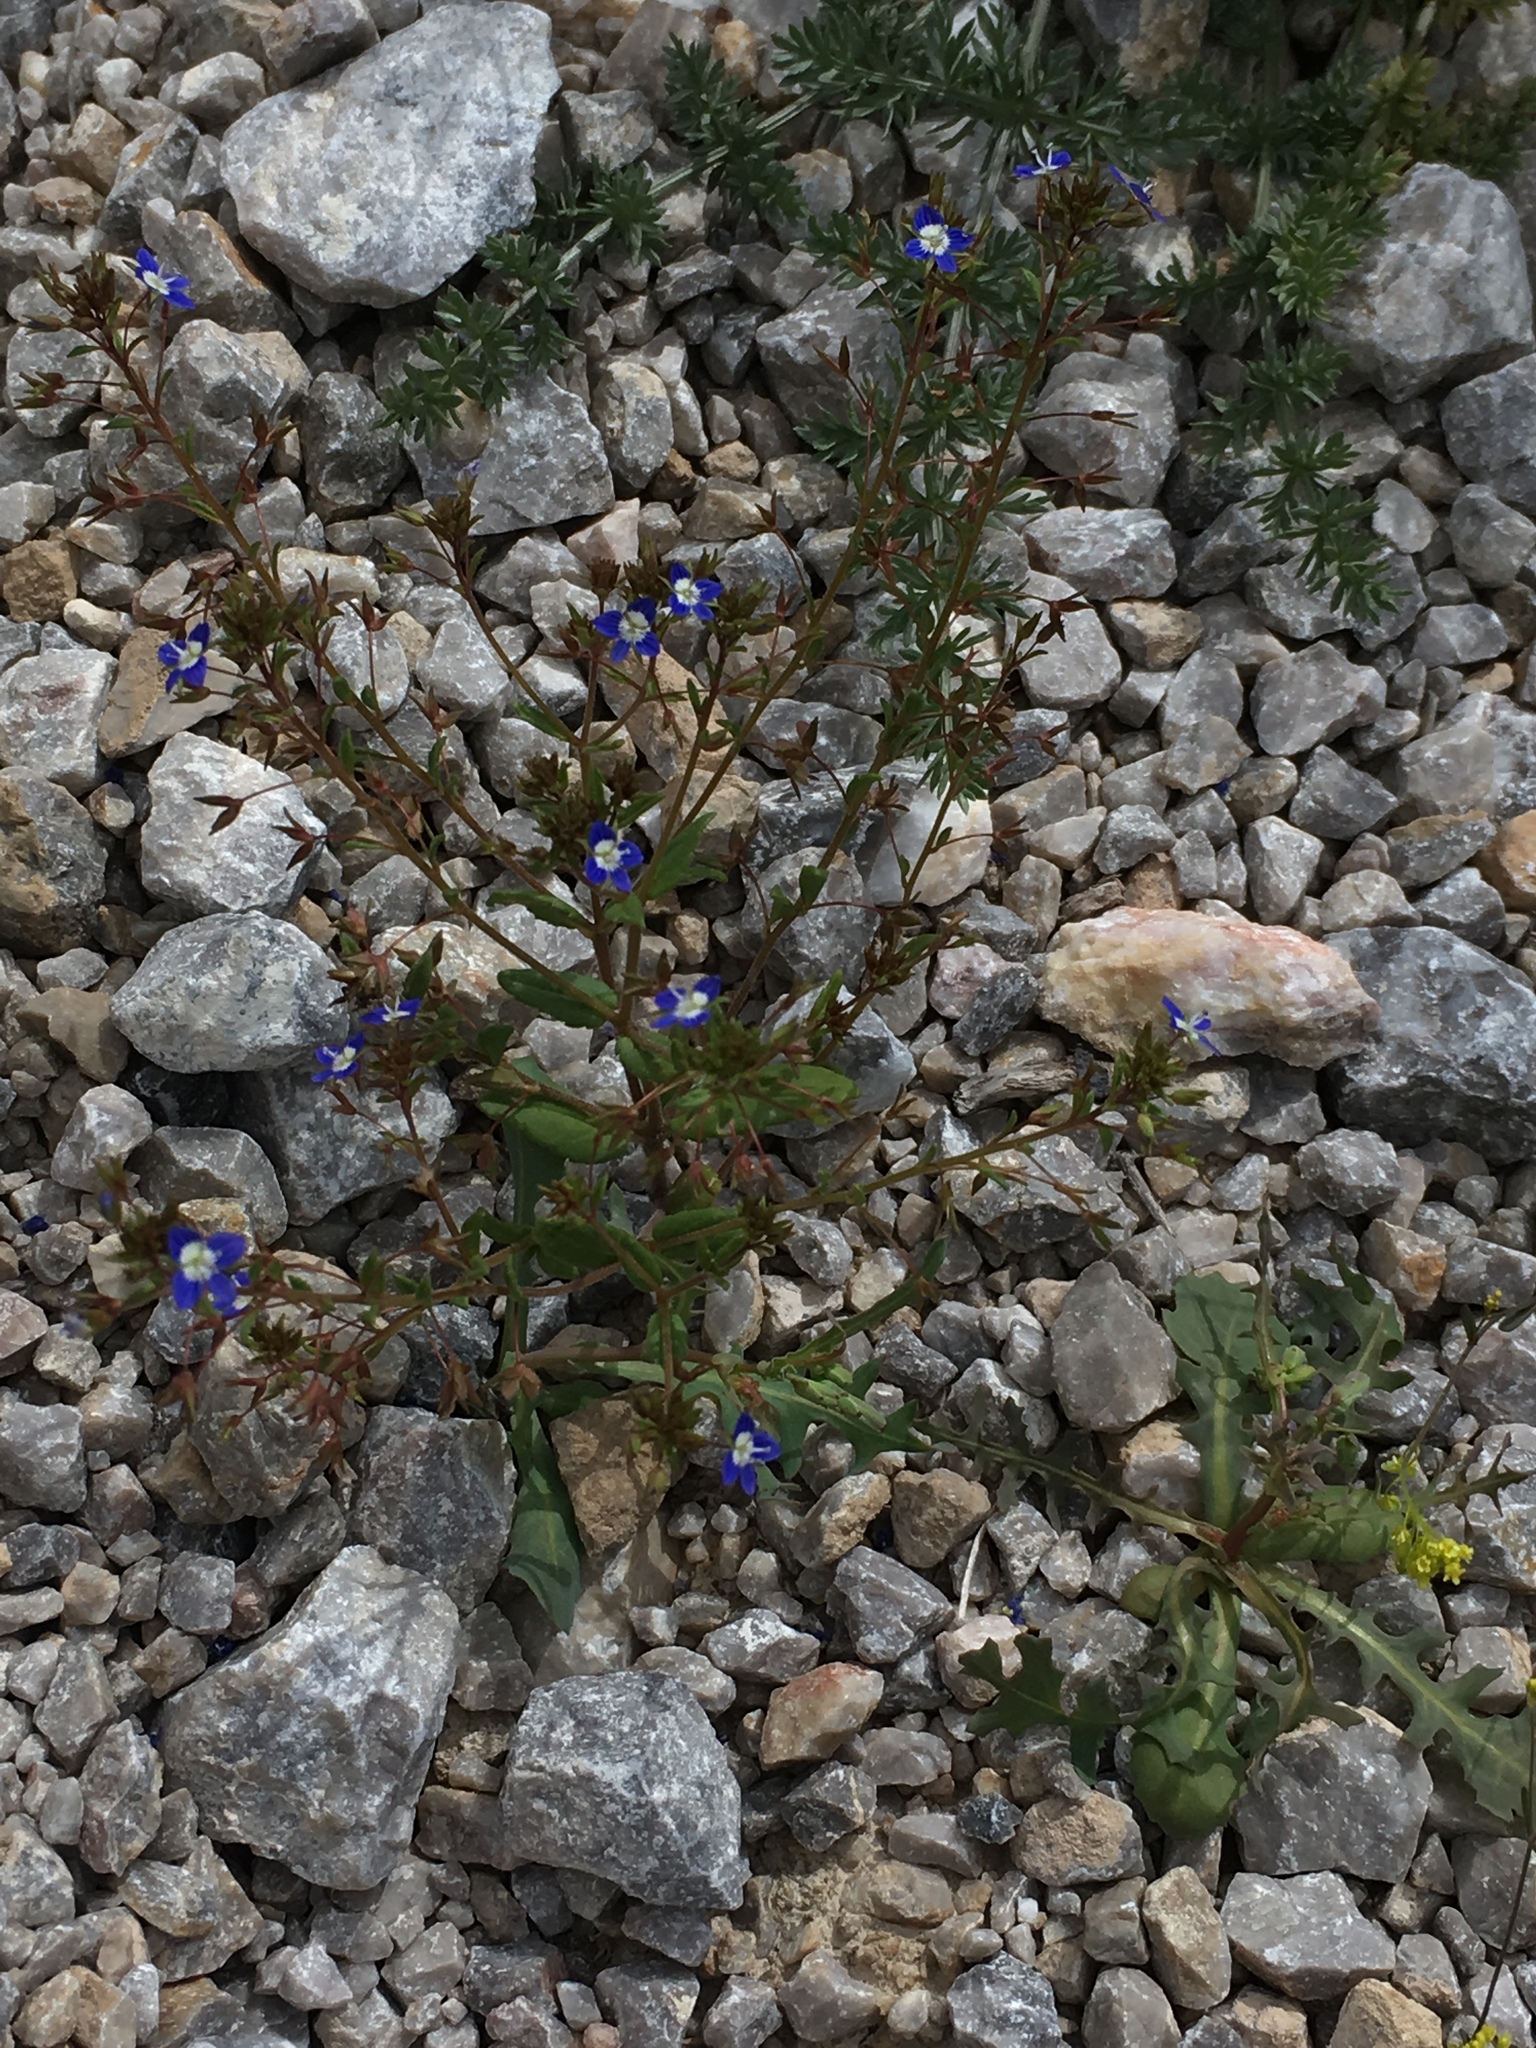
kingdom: Plantae
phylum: Tracheophyta
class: Magnoliopsida
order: Lamiales
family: Plantaginaceae
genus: Veronica
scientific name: Veronica capillipes
